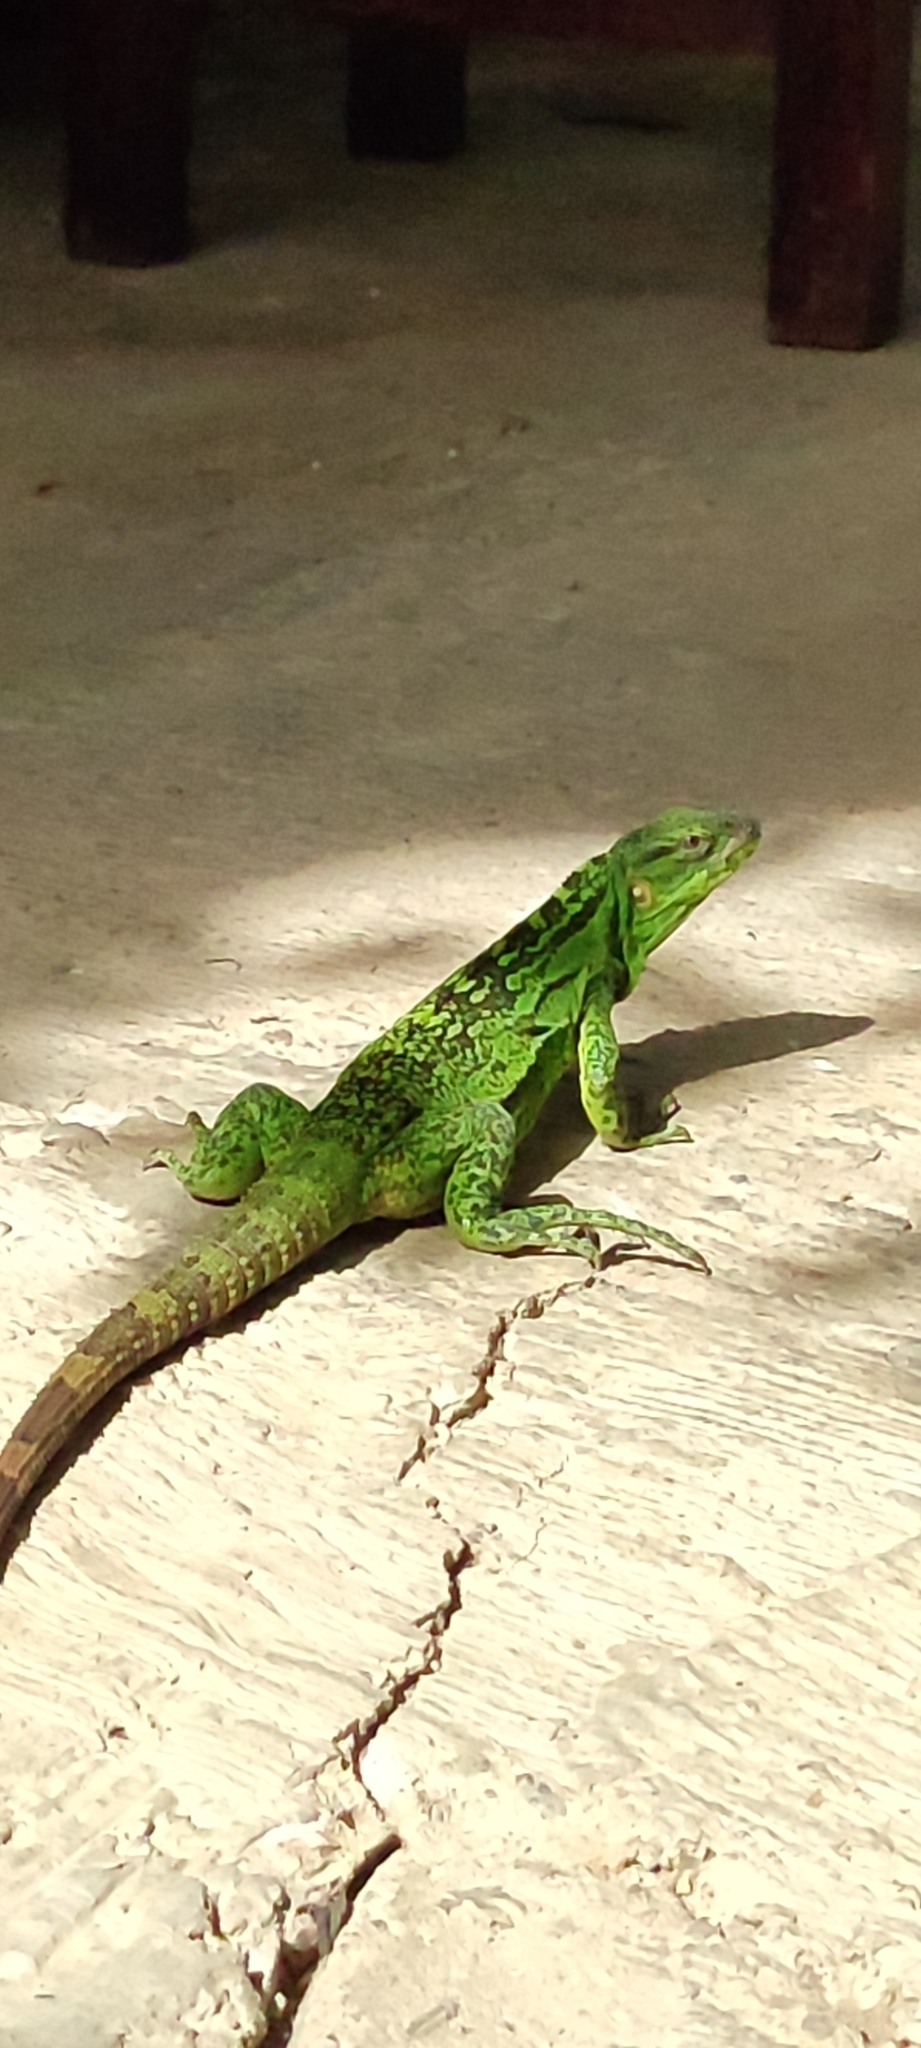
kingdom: Animalia
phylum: Chordata
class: Squamata
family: Iguanidae
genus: Ctenosaura
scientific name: Ctenosaura pectinata
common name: Guerreran spiny-tailed iguana
